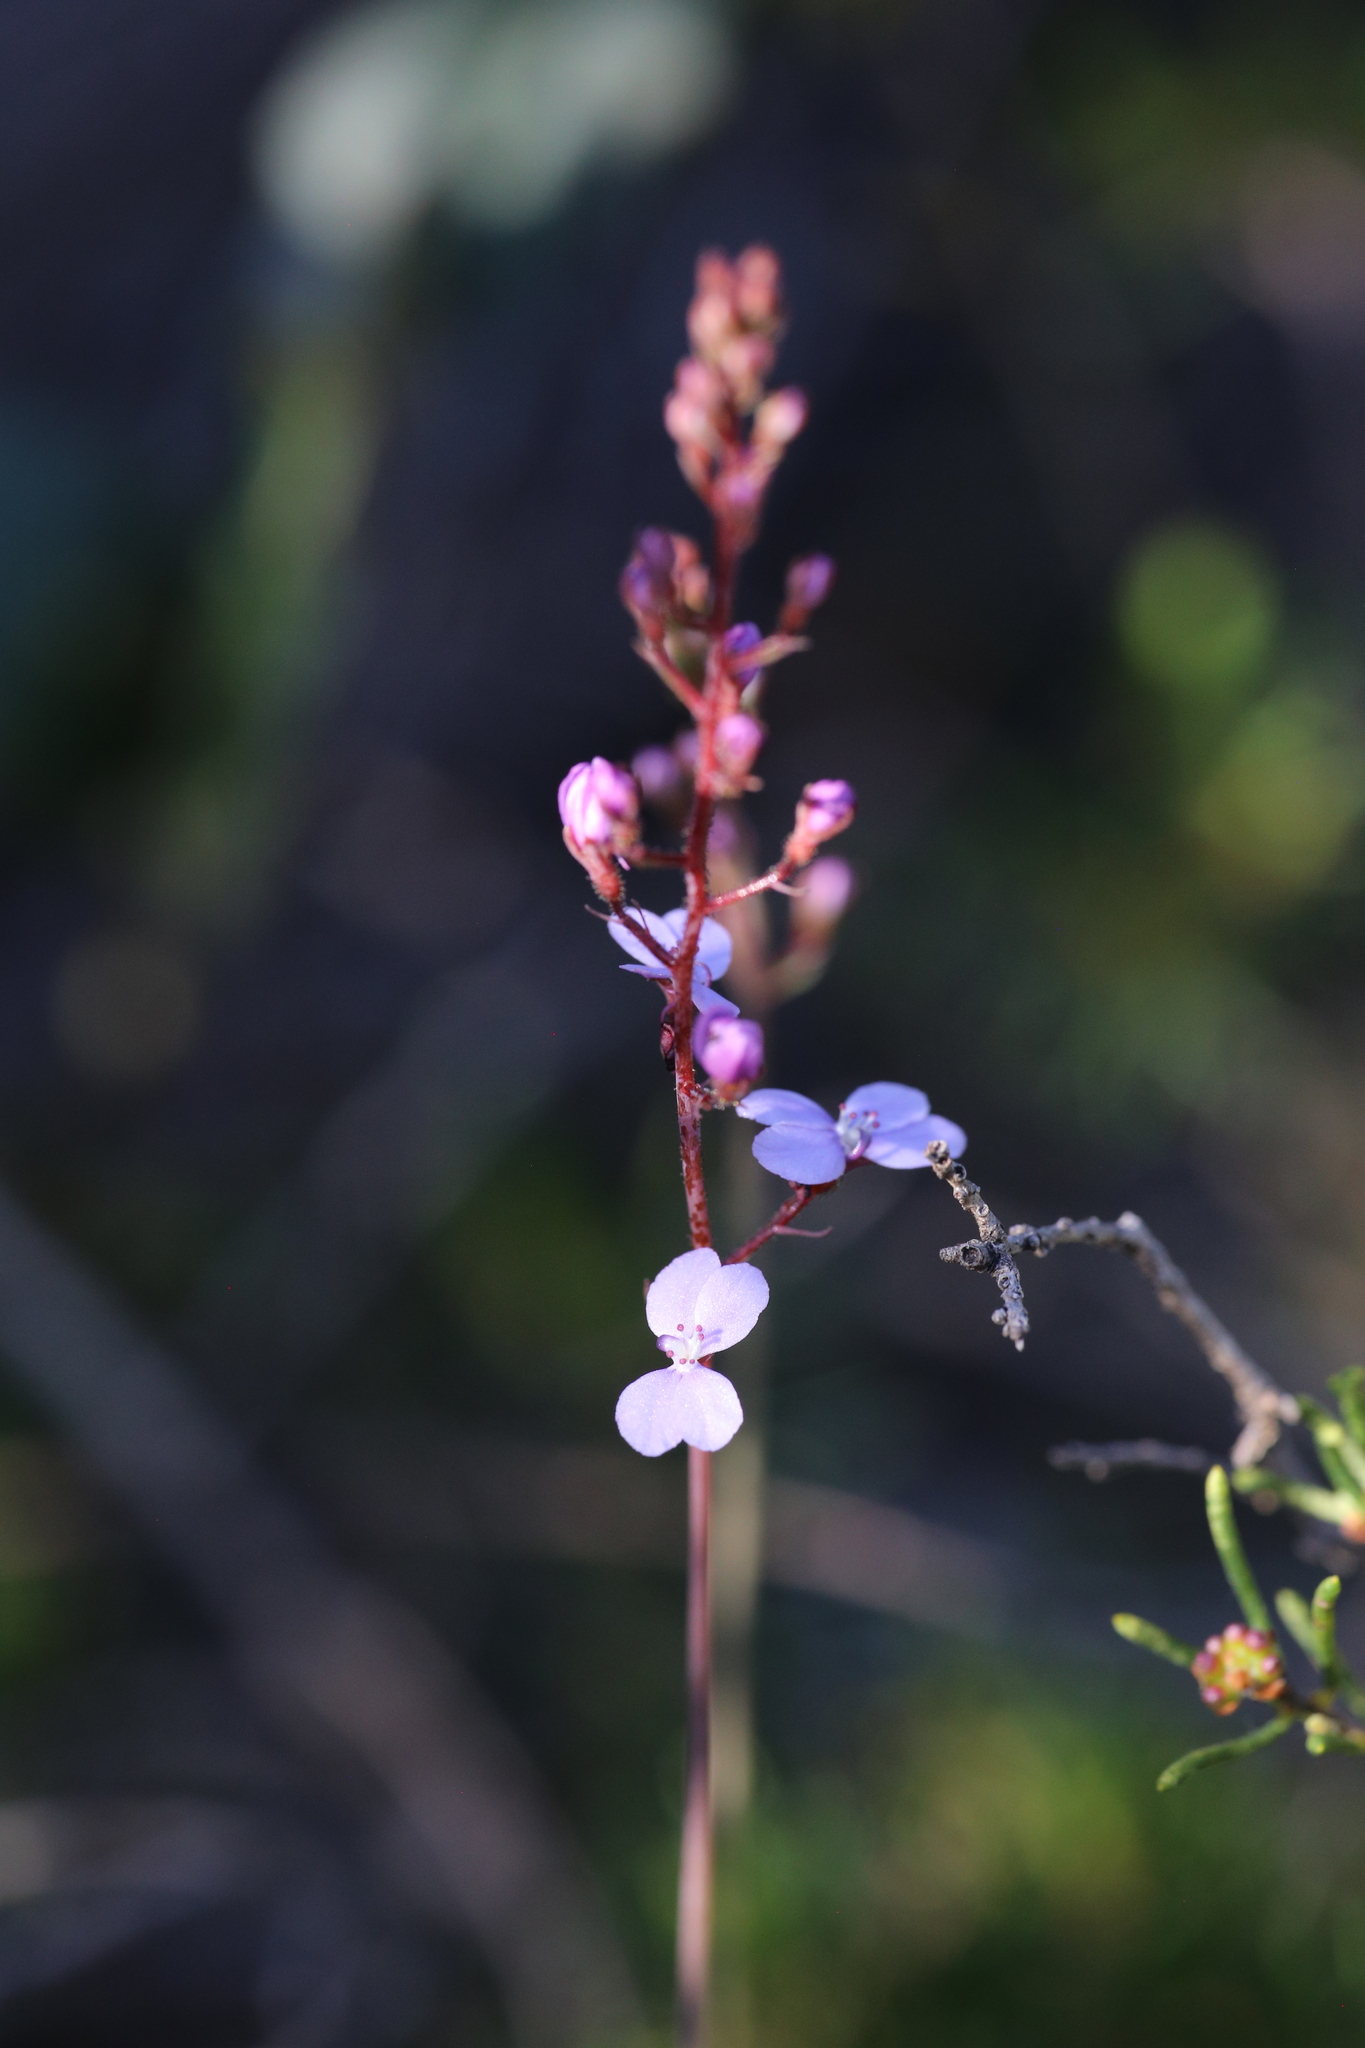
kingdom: Plantae
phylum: Tracheophyta
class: Magnoliopsida
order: Asterales
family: Stylidiaceae
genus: Stylidium
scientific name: Stylidium amoenum
